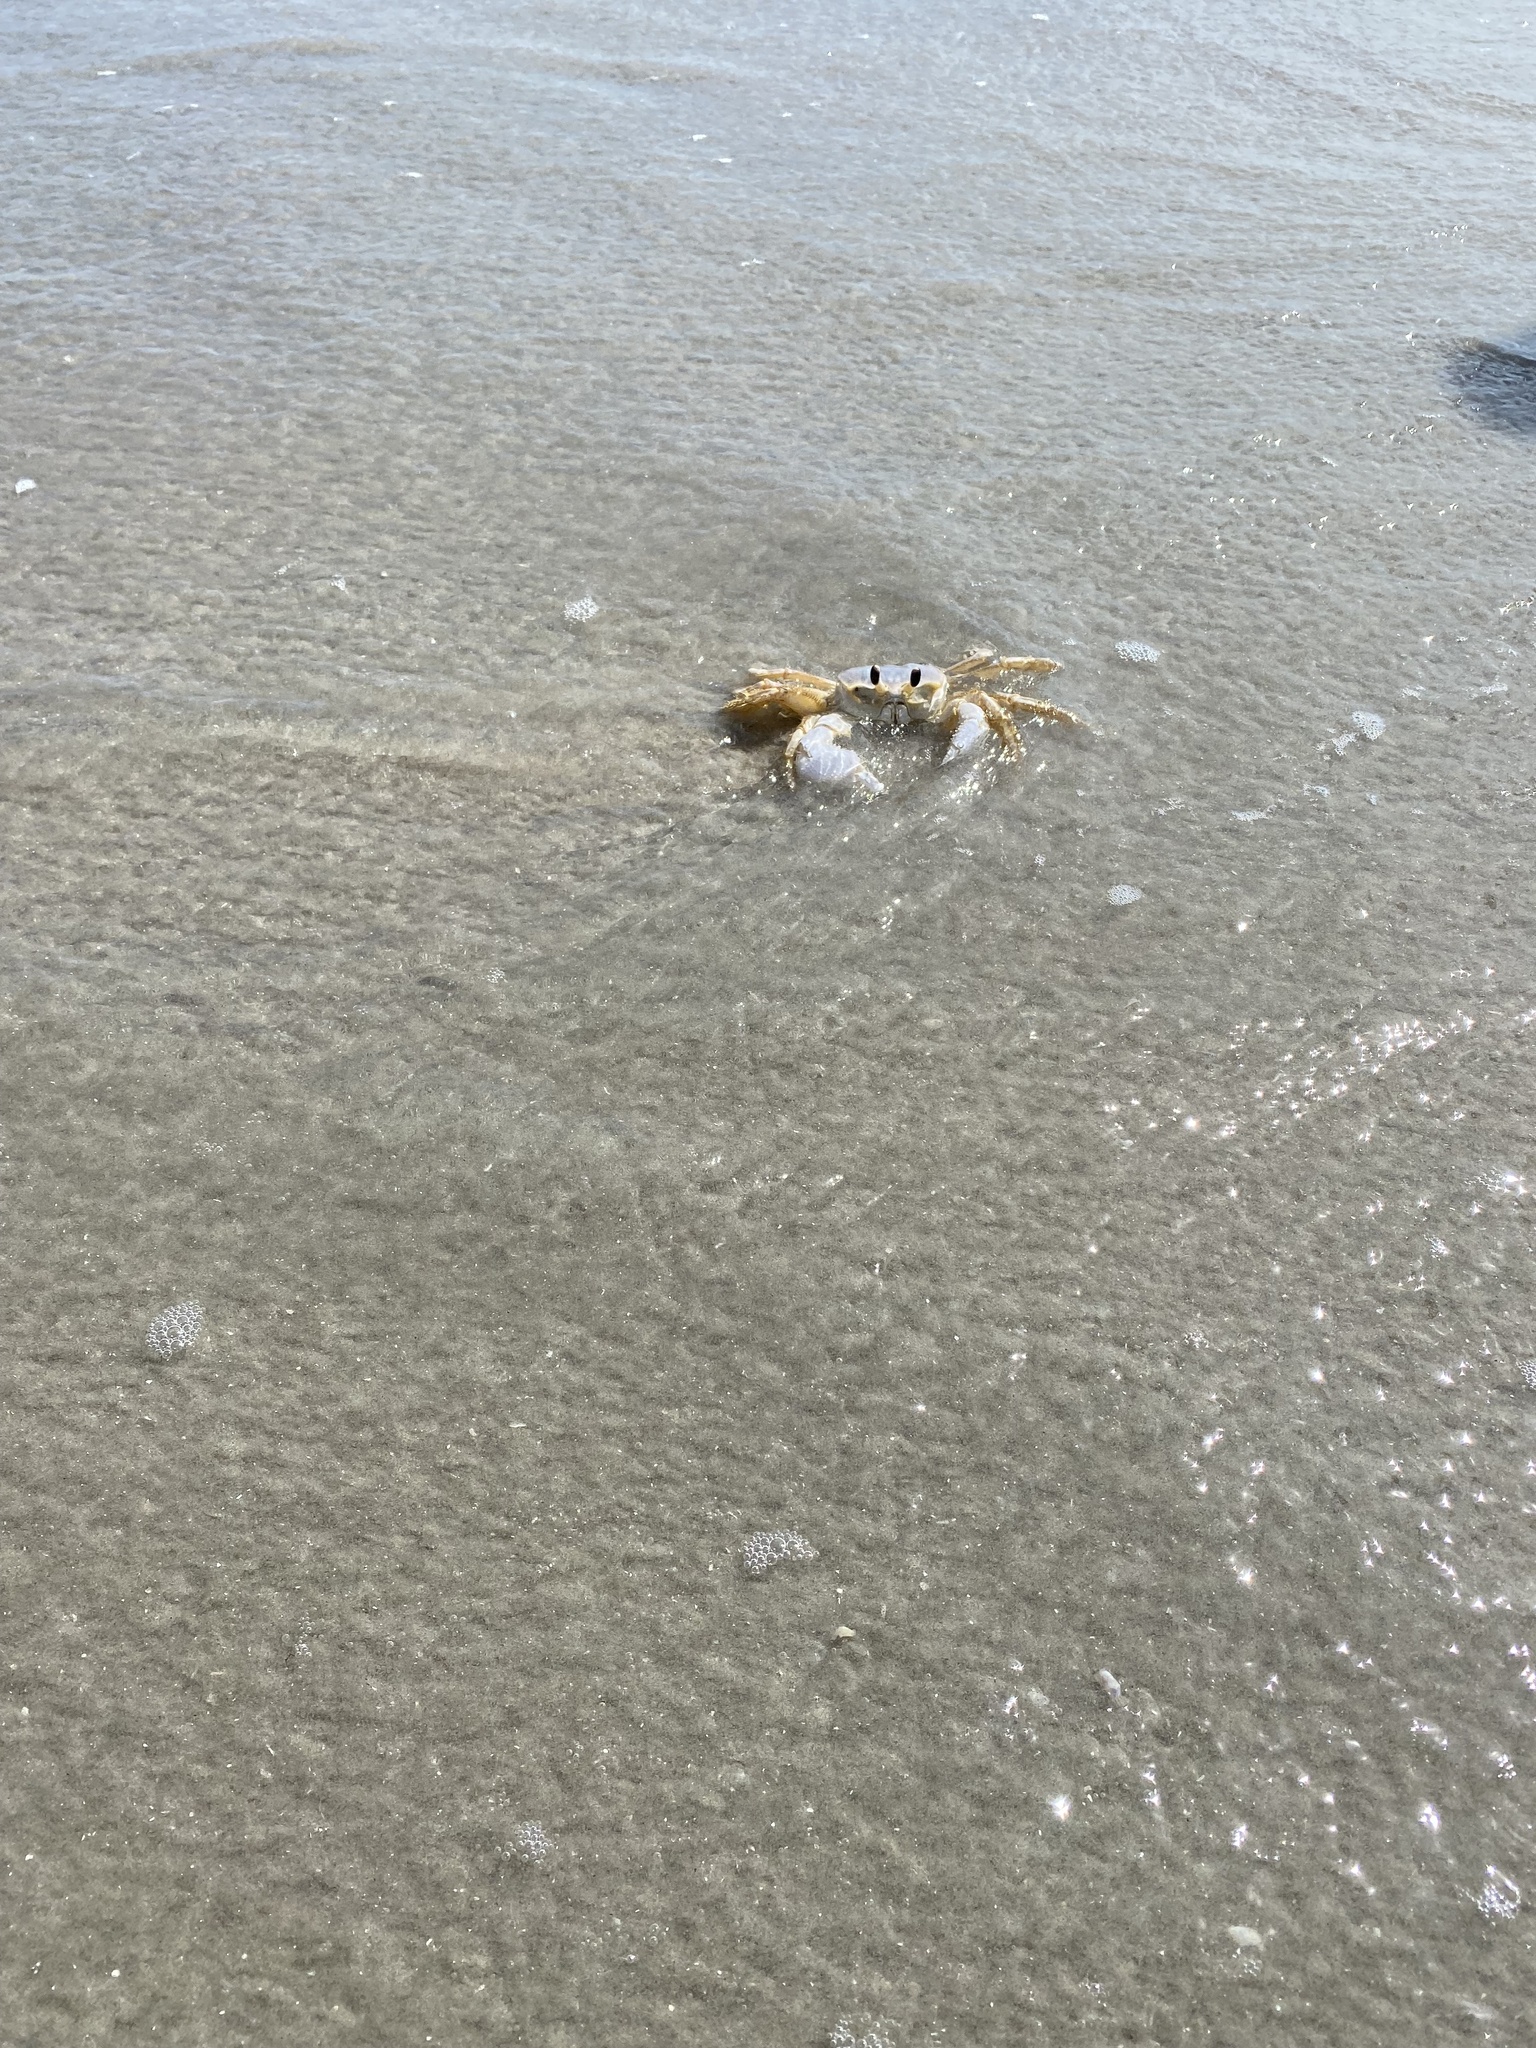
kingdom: Animalia
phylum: Arthropoda
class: Malacostraca
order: Decapoda
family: Ocypodidae
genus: Ocypode
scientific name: Ocypode quadrata
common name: Ghost crab
